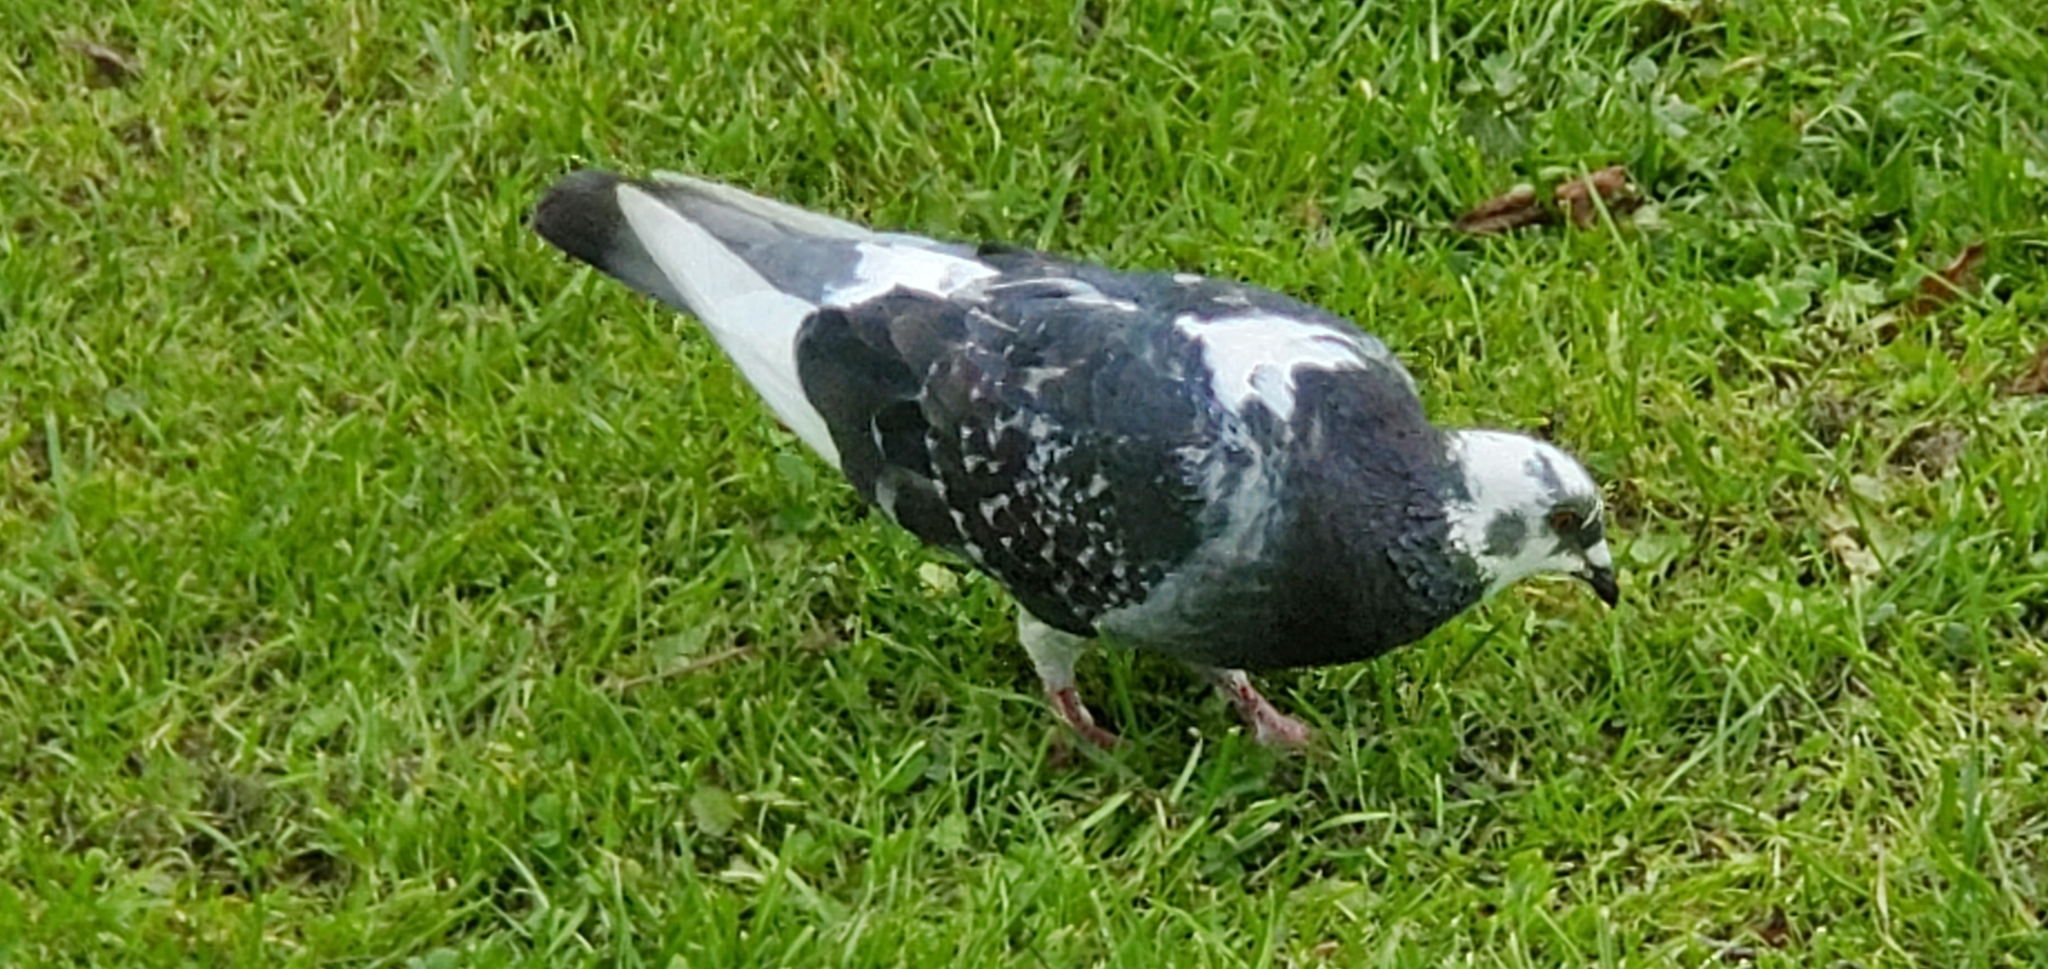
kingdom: Animalia
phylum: Chordata
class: Aves
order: Columbiformes
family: Columbidae
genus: Columba
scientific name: Columba livia
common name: Rock pigeon
